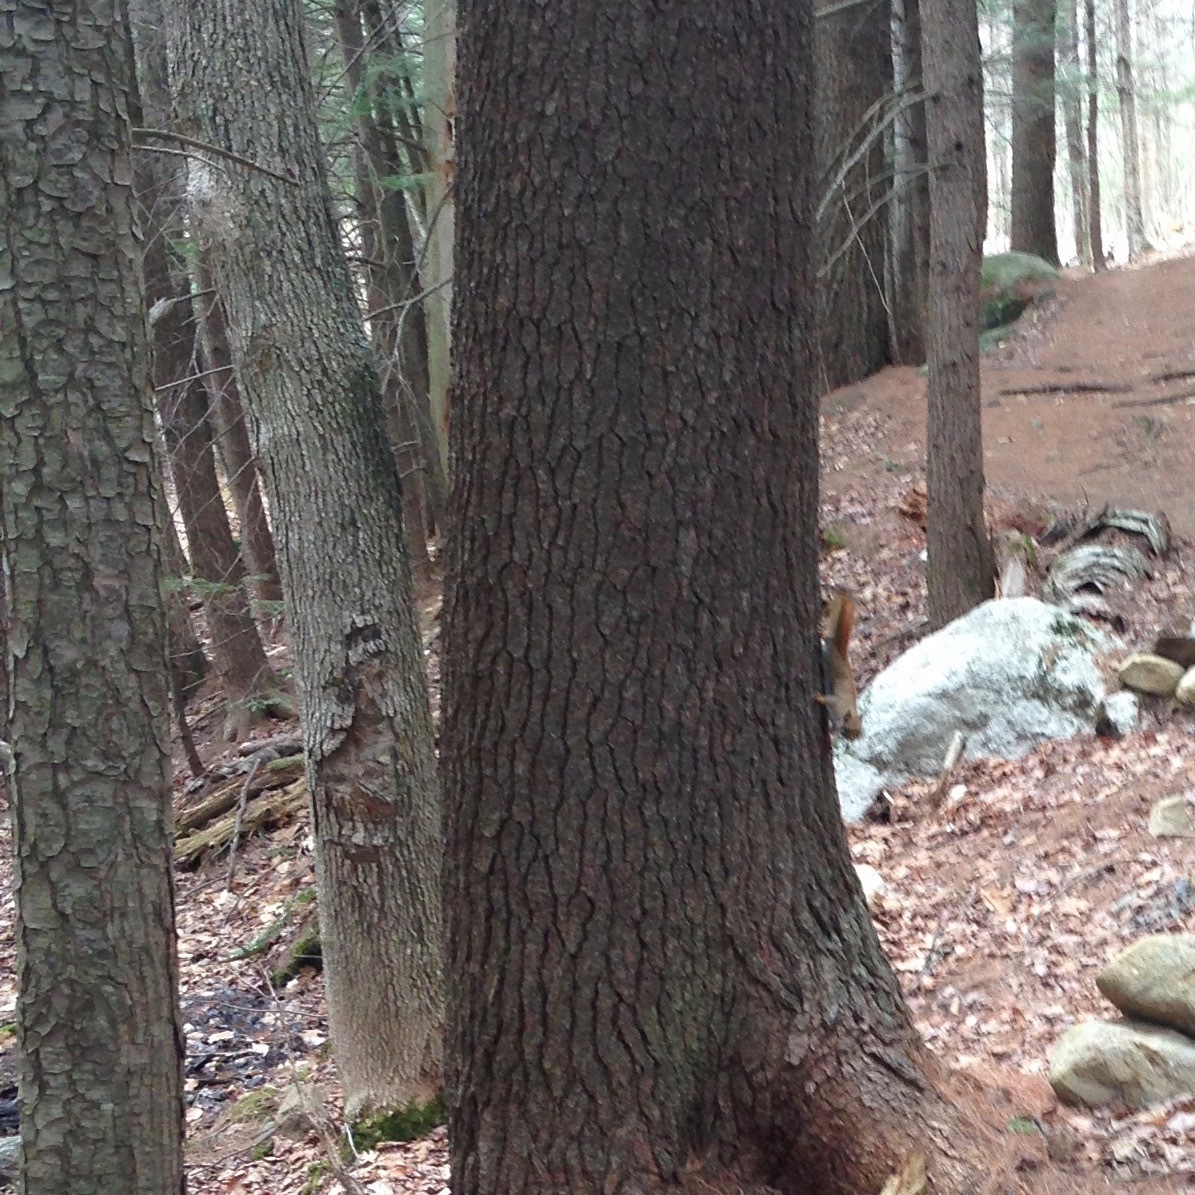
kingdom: Animalia
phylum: Chordata
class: Mammalia
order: Rodentia
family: Sciuridae
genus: Tamiasciurus
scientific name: Tamiasciurus hudsonicus
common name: Red squirrel
